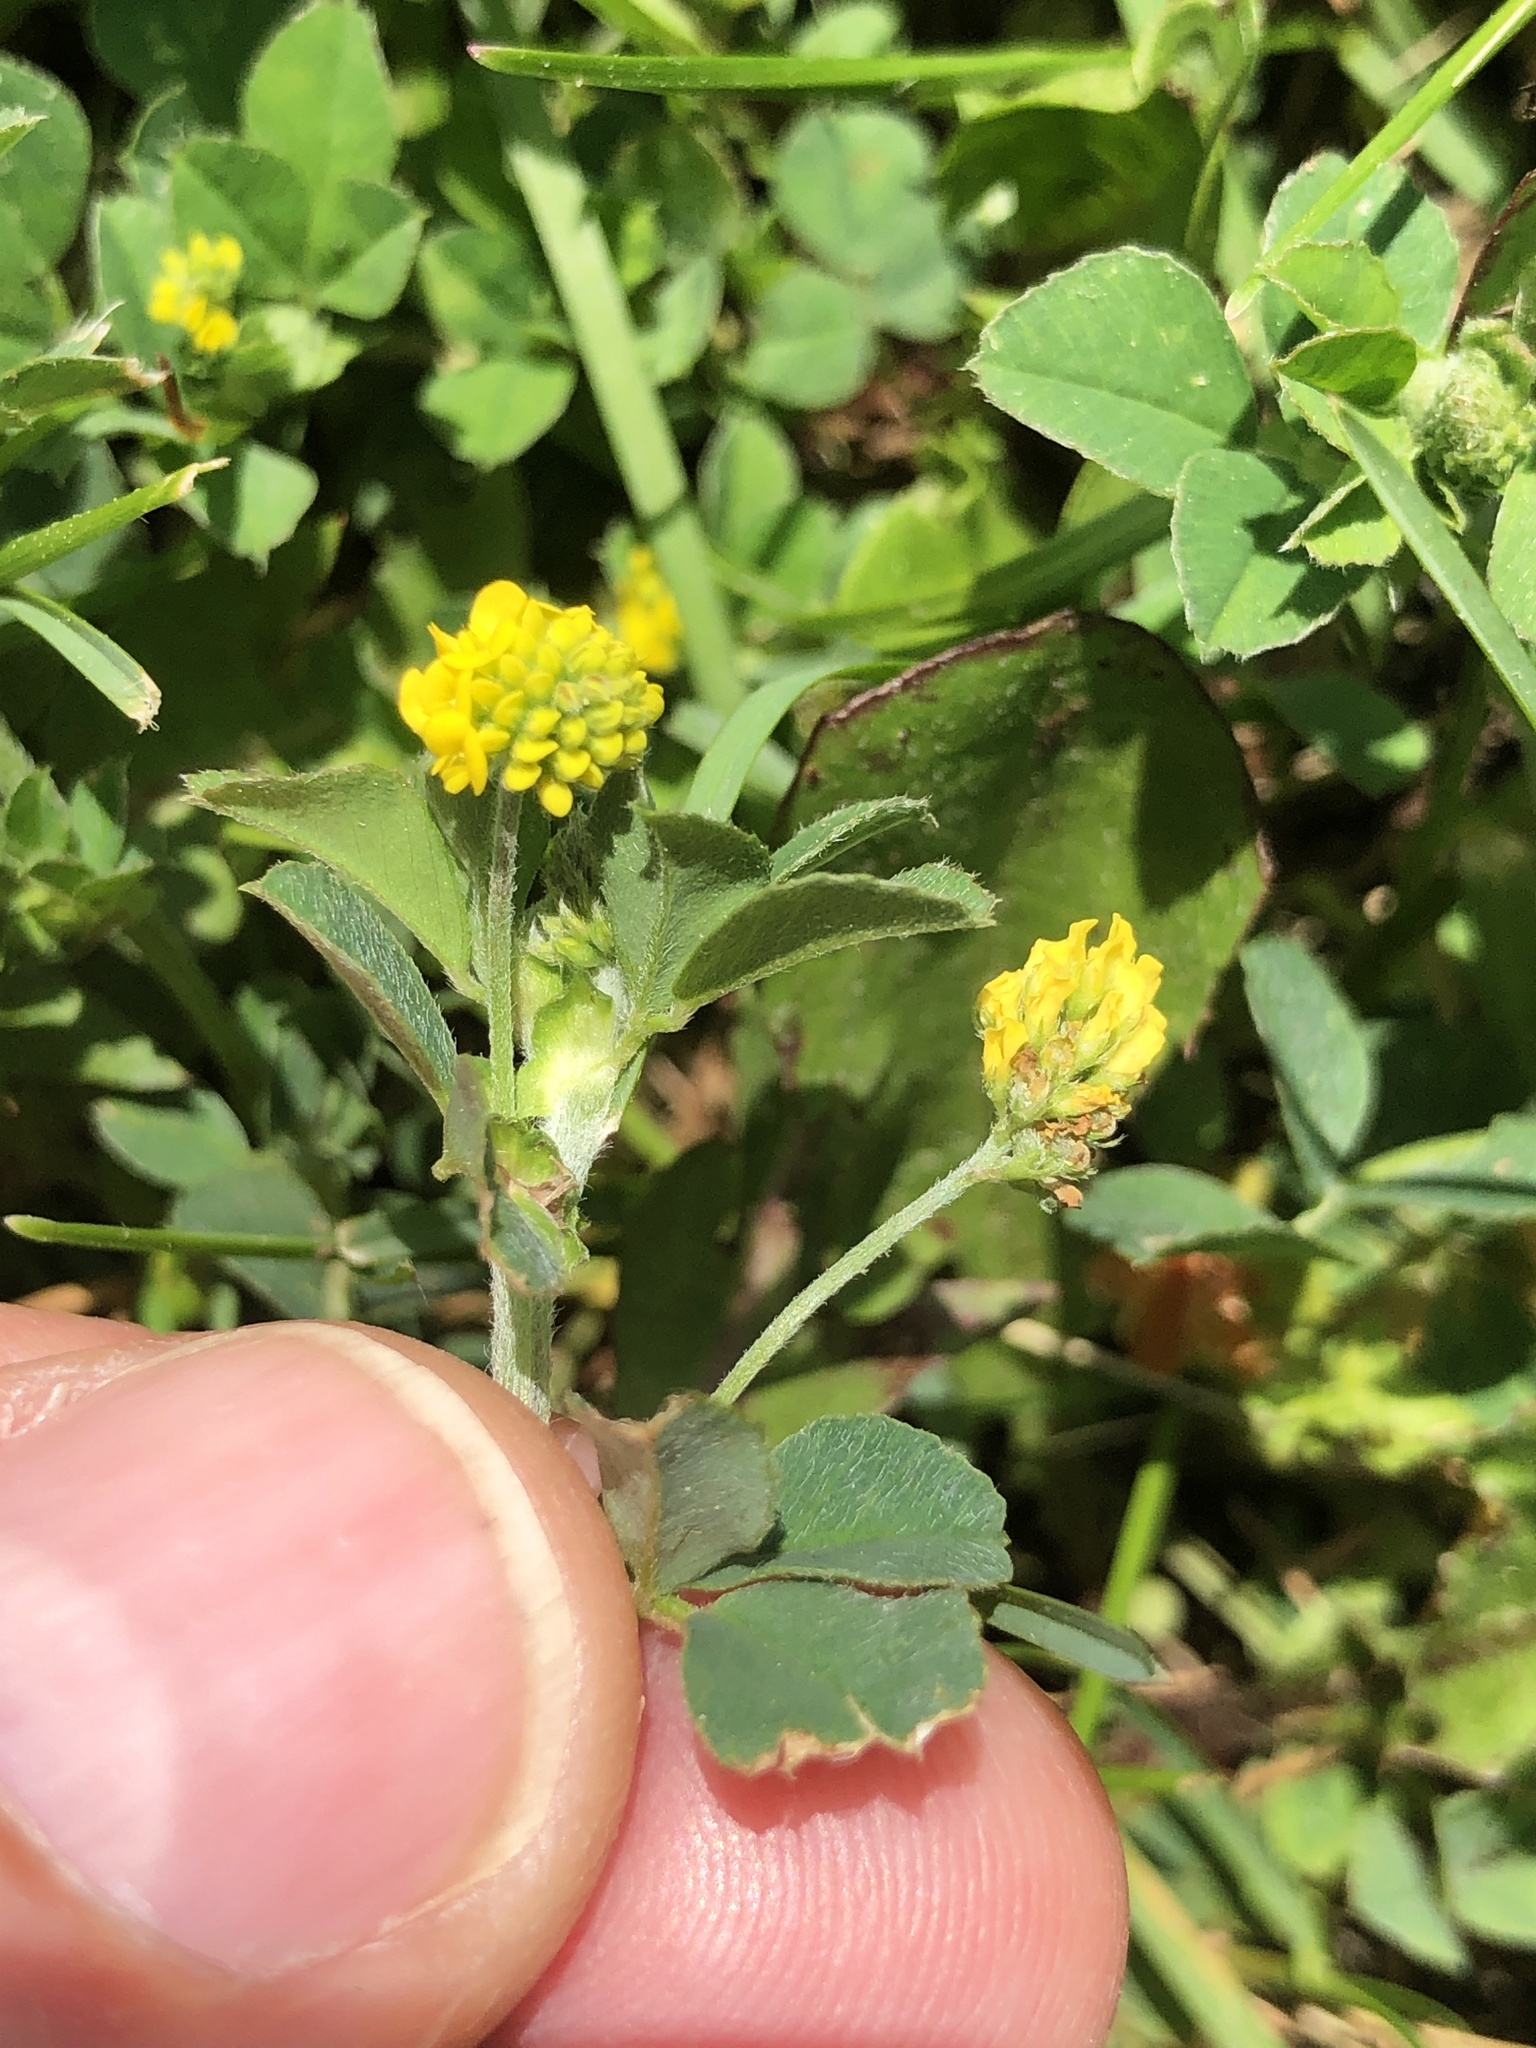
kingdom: Plantae
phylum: Tracheophyta
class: Magnoliopsida
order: Fabales
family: Fabaceae
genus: Medicago
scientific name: Medicago lupulina
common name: Black medick
